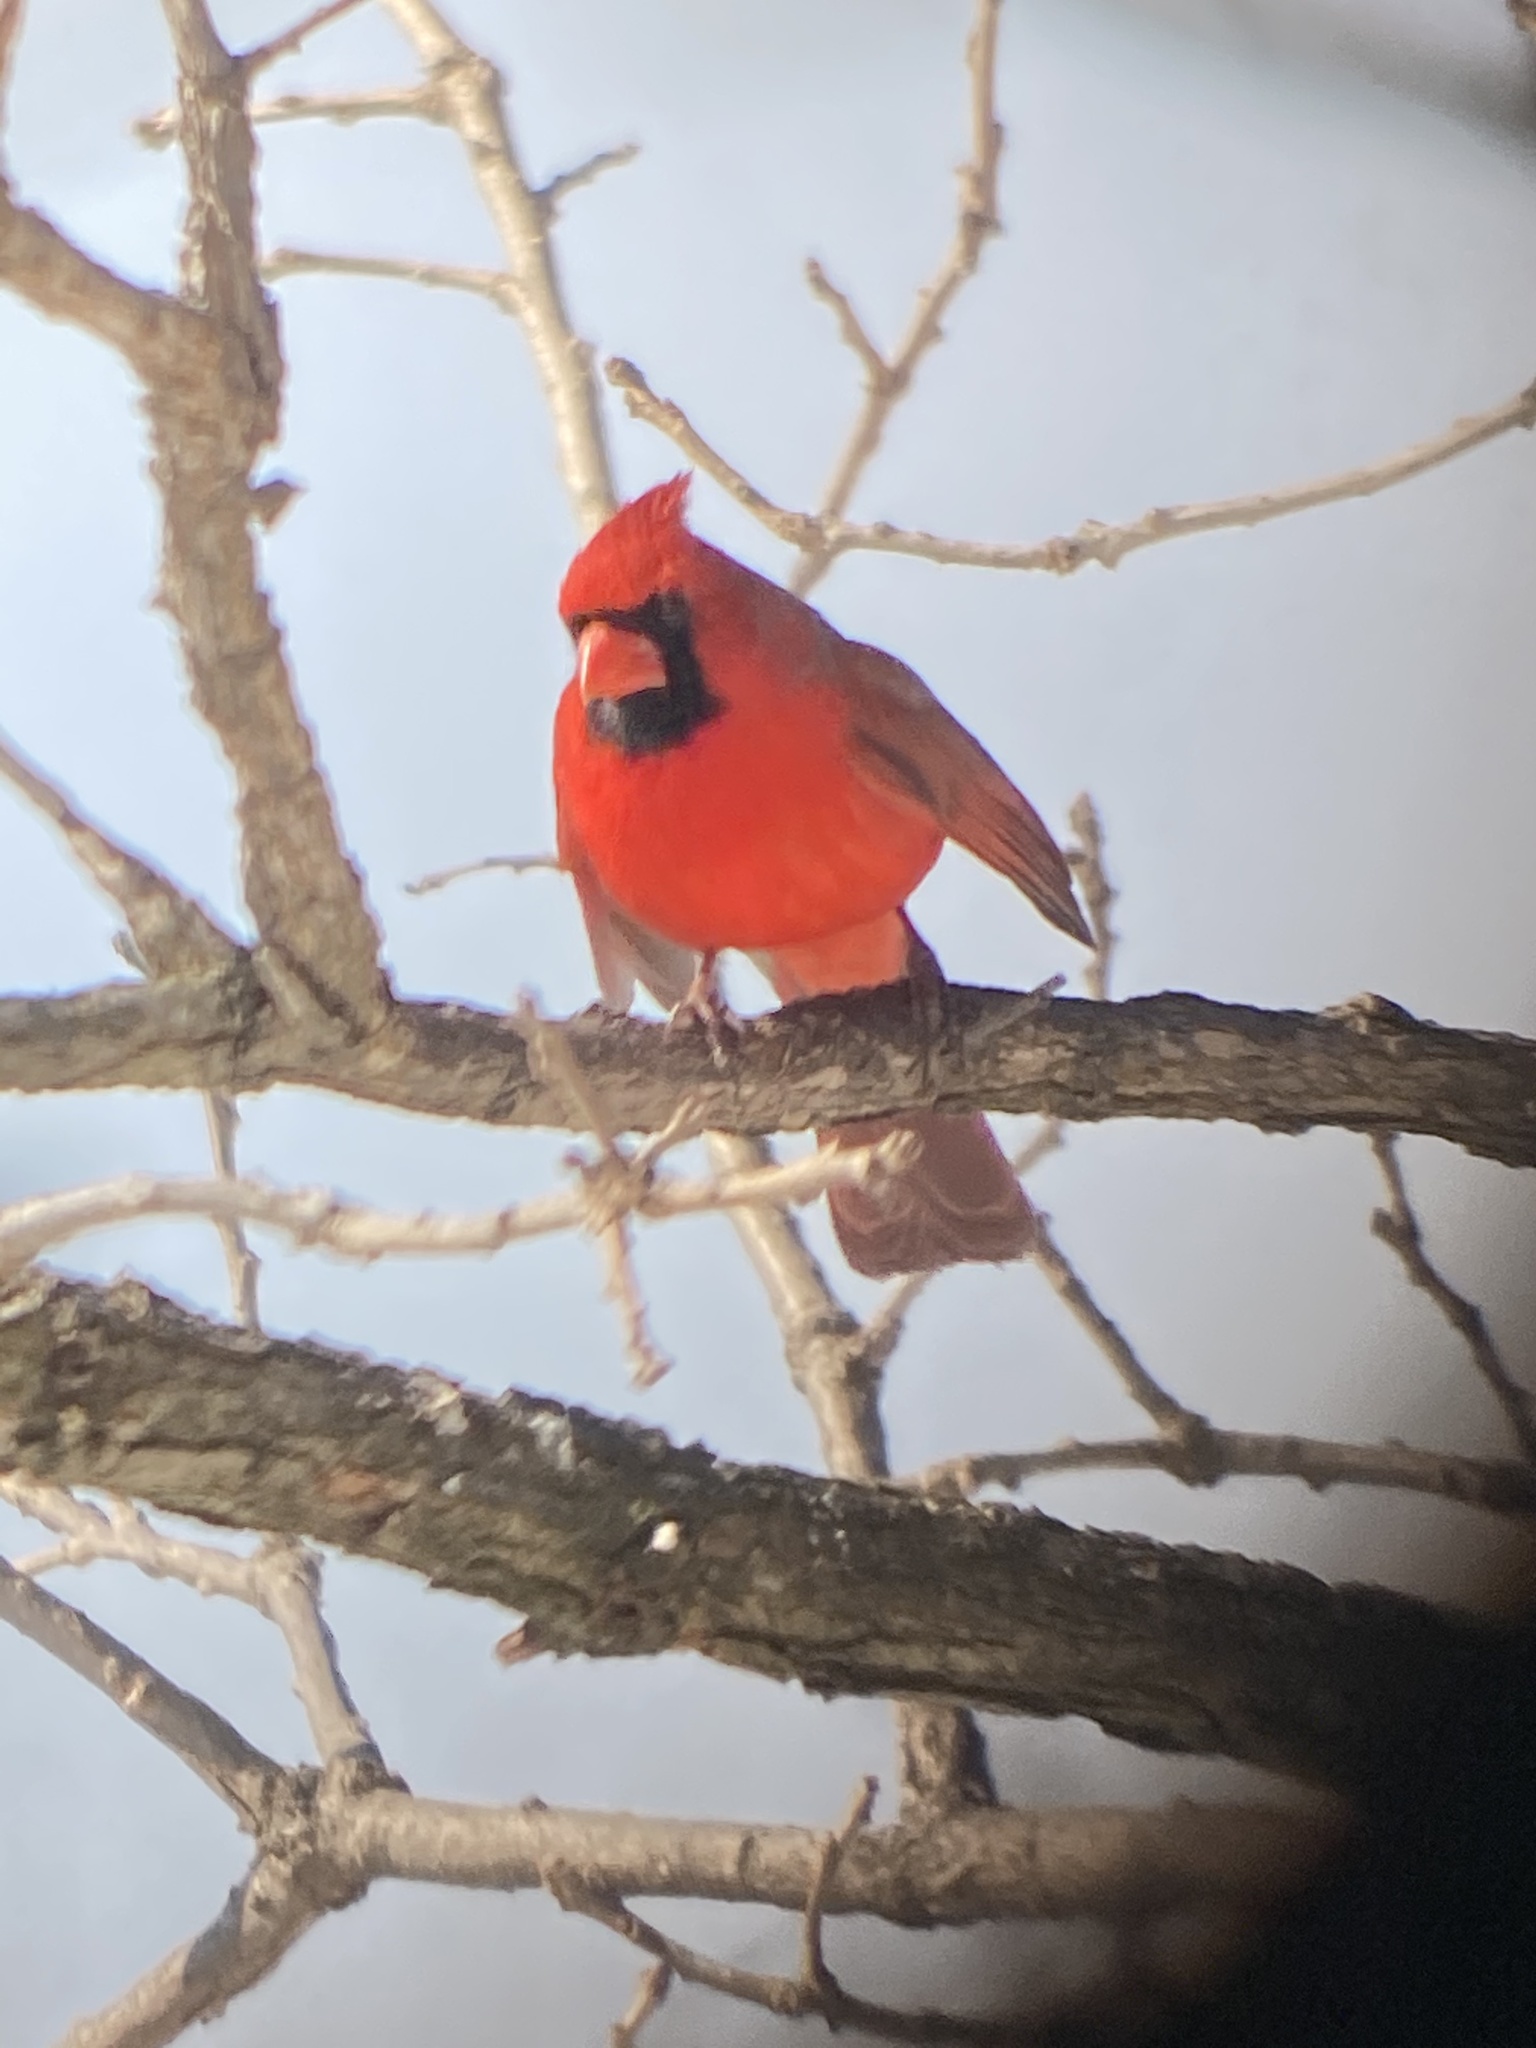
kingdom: Animalia
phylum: Chordata
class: Aves
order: Passeriformes
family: Cardinalidae
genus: Cardinalis
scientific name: Cardinalis cardinalis
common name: Northern cardinal
